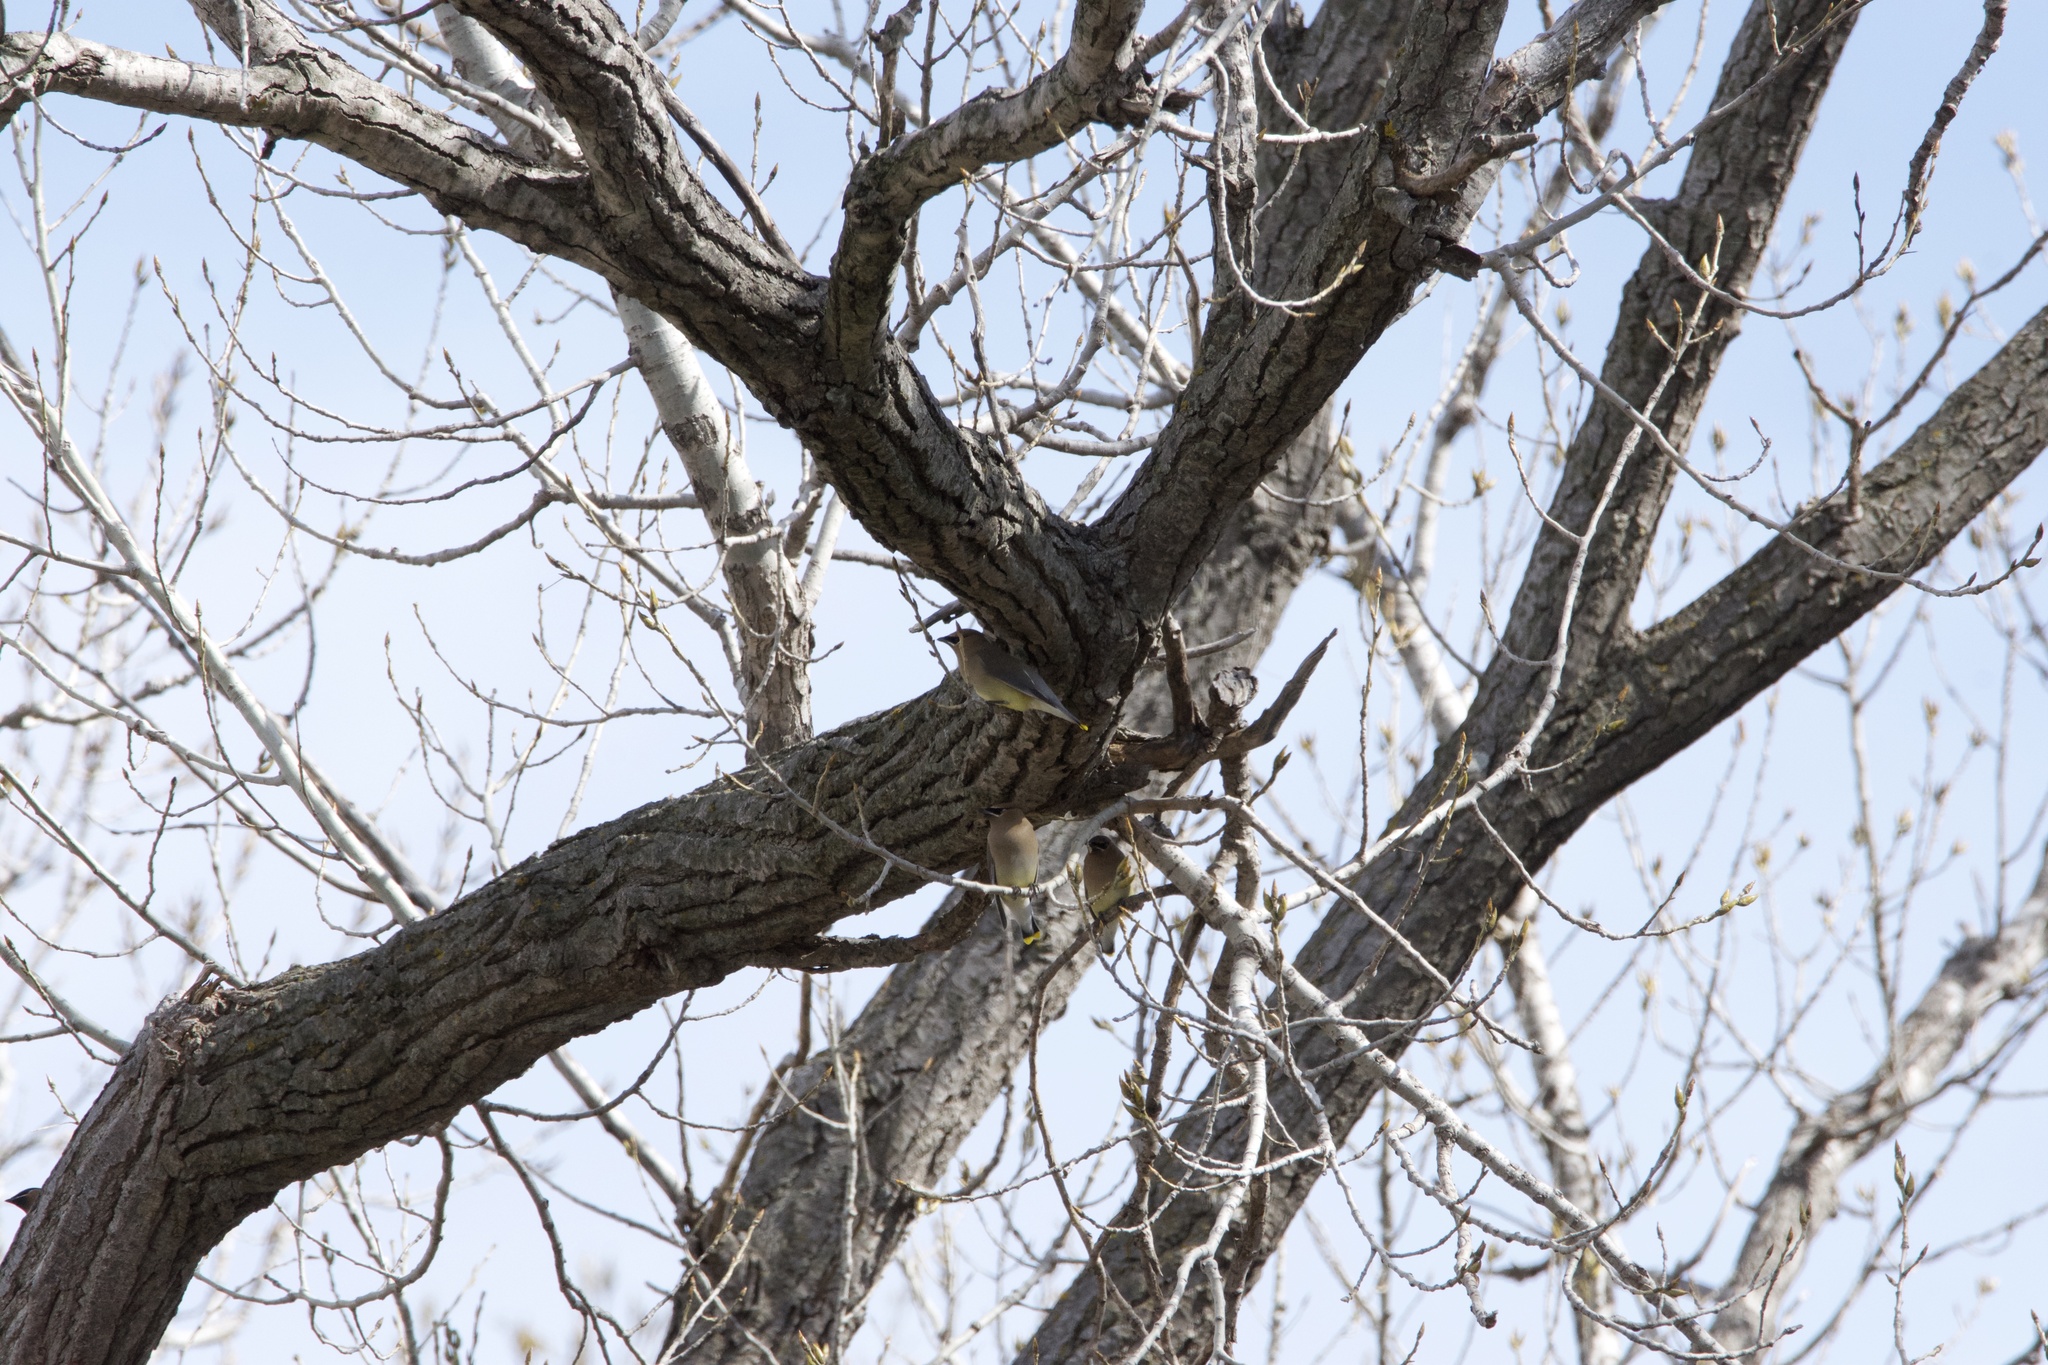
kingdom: Animalia
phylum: Chordata
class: Aves
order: Passeriformes
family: Bombycillidae
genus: Bombycilla
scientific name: Bombycilla cedrorum
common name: Cedar waxwing
